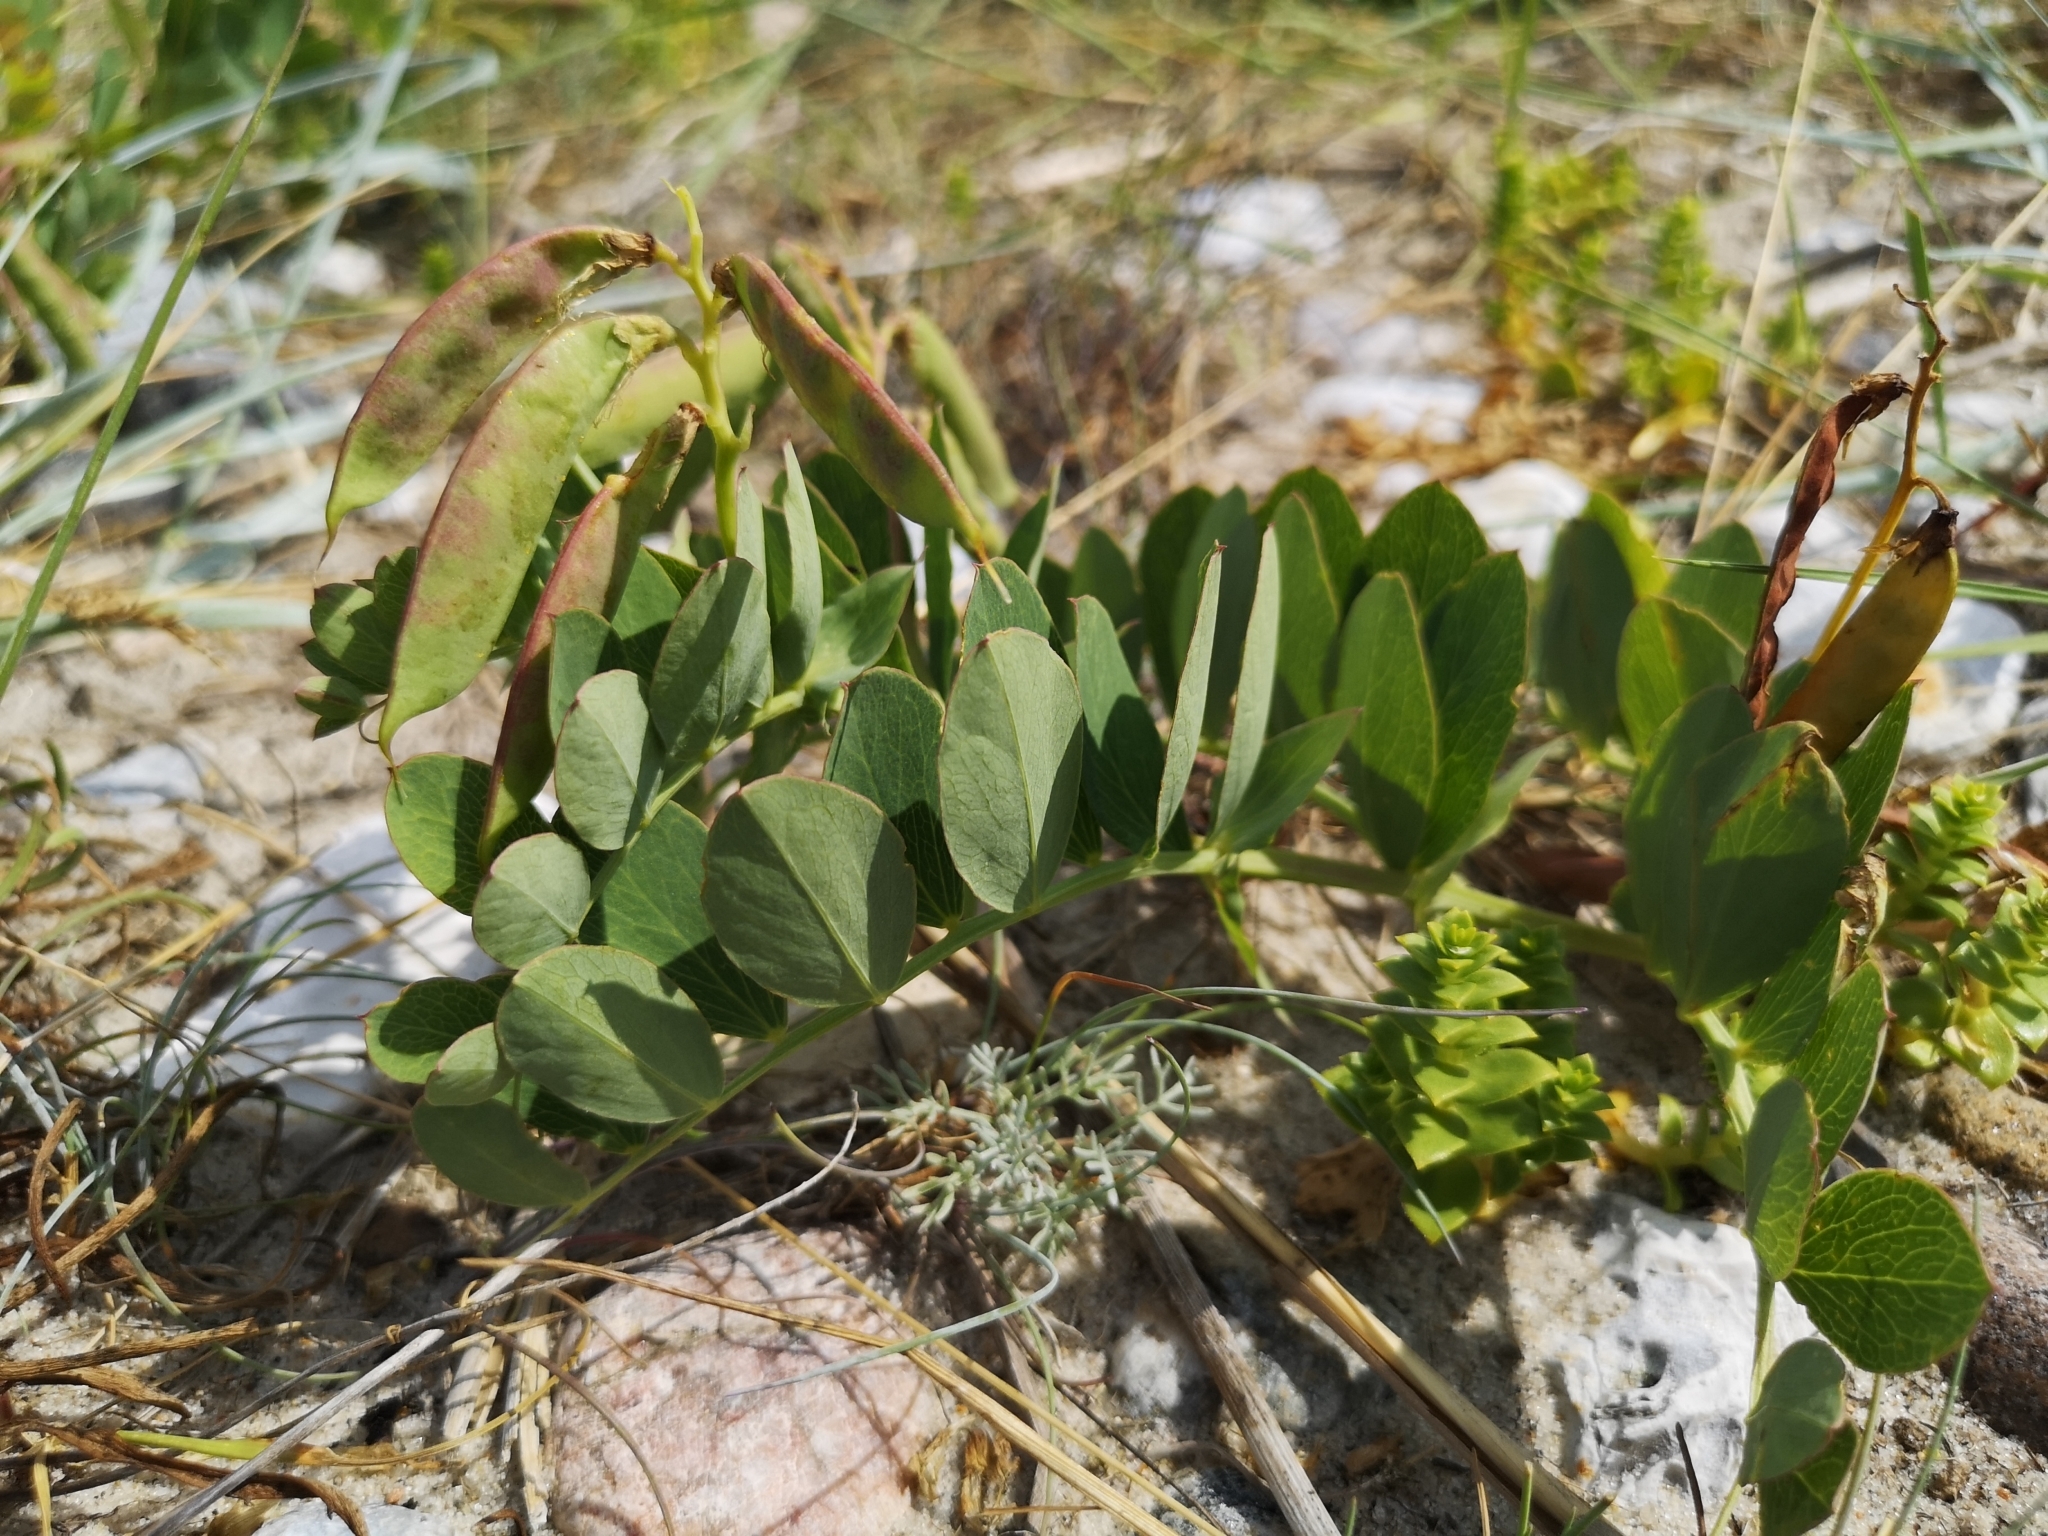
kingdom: Plantae
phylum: Tracheophyta
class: Magnoliopsida
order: Fabales
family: Fabaceae
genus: Lathyrus
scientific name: Lathyrus japonicus
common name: Sea pea
